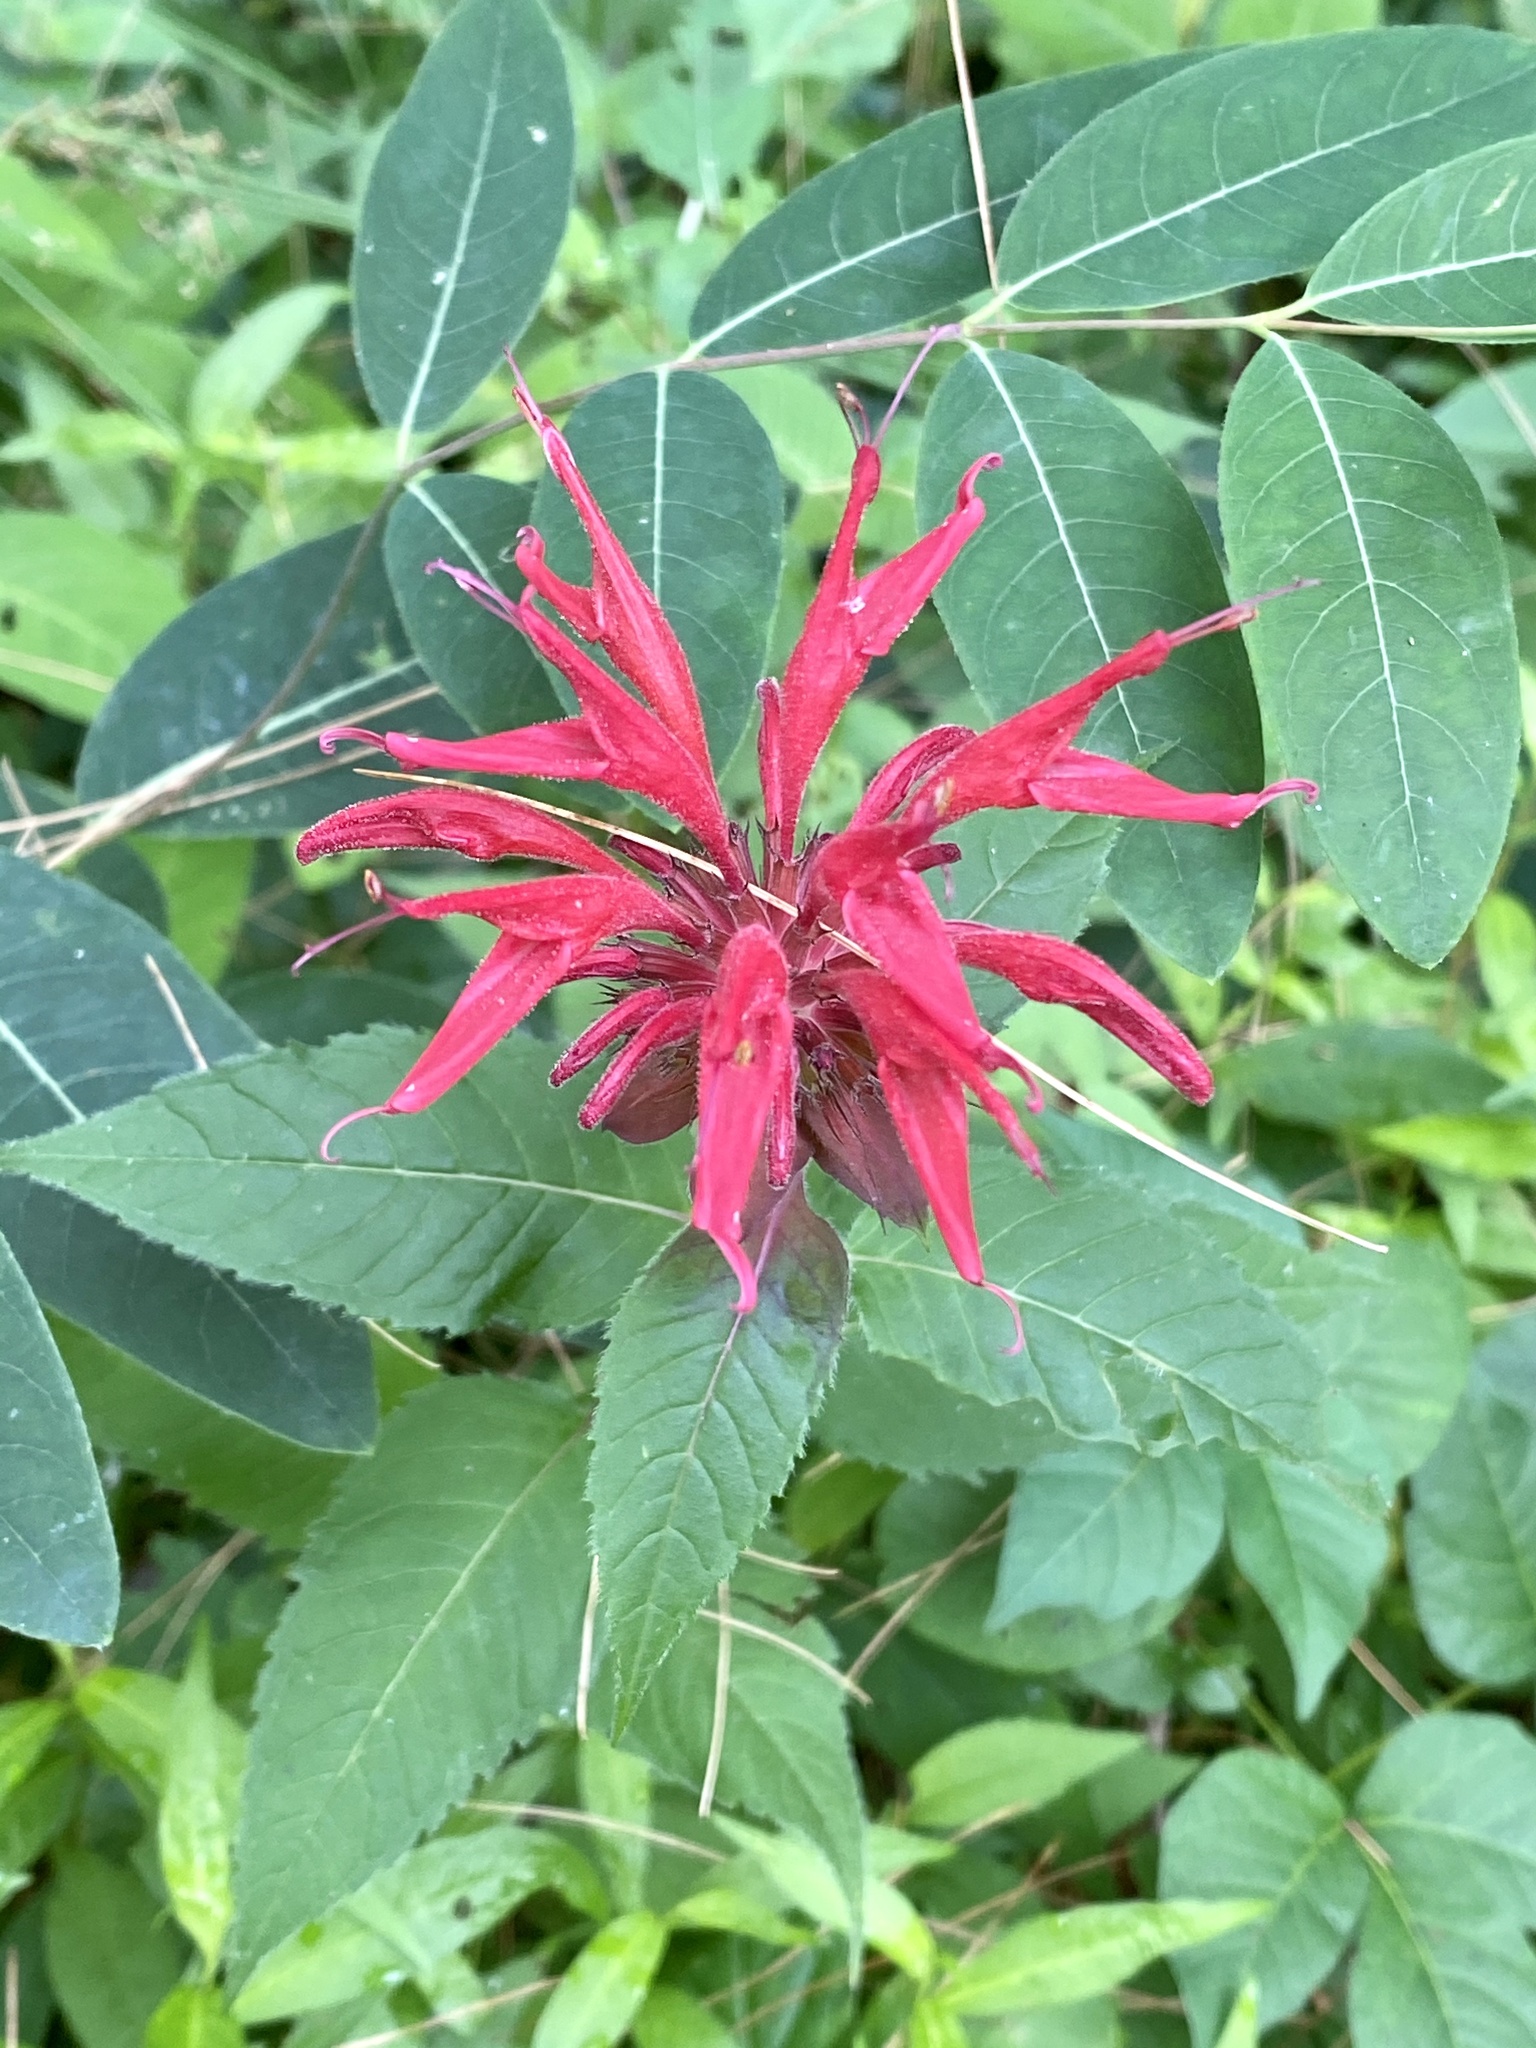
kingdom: Plantae
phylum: Tracheophyta
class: Magnoliopsida
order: Lamiales
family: Lamiaceae
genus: Monarda
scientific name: Monarda didyma
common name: Beebalm
